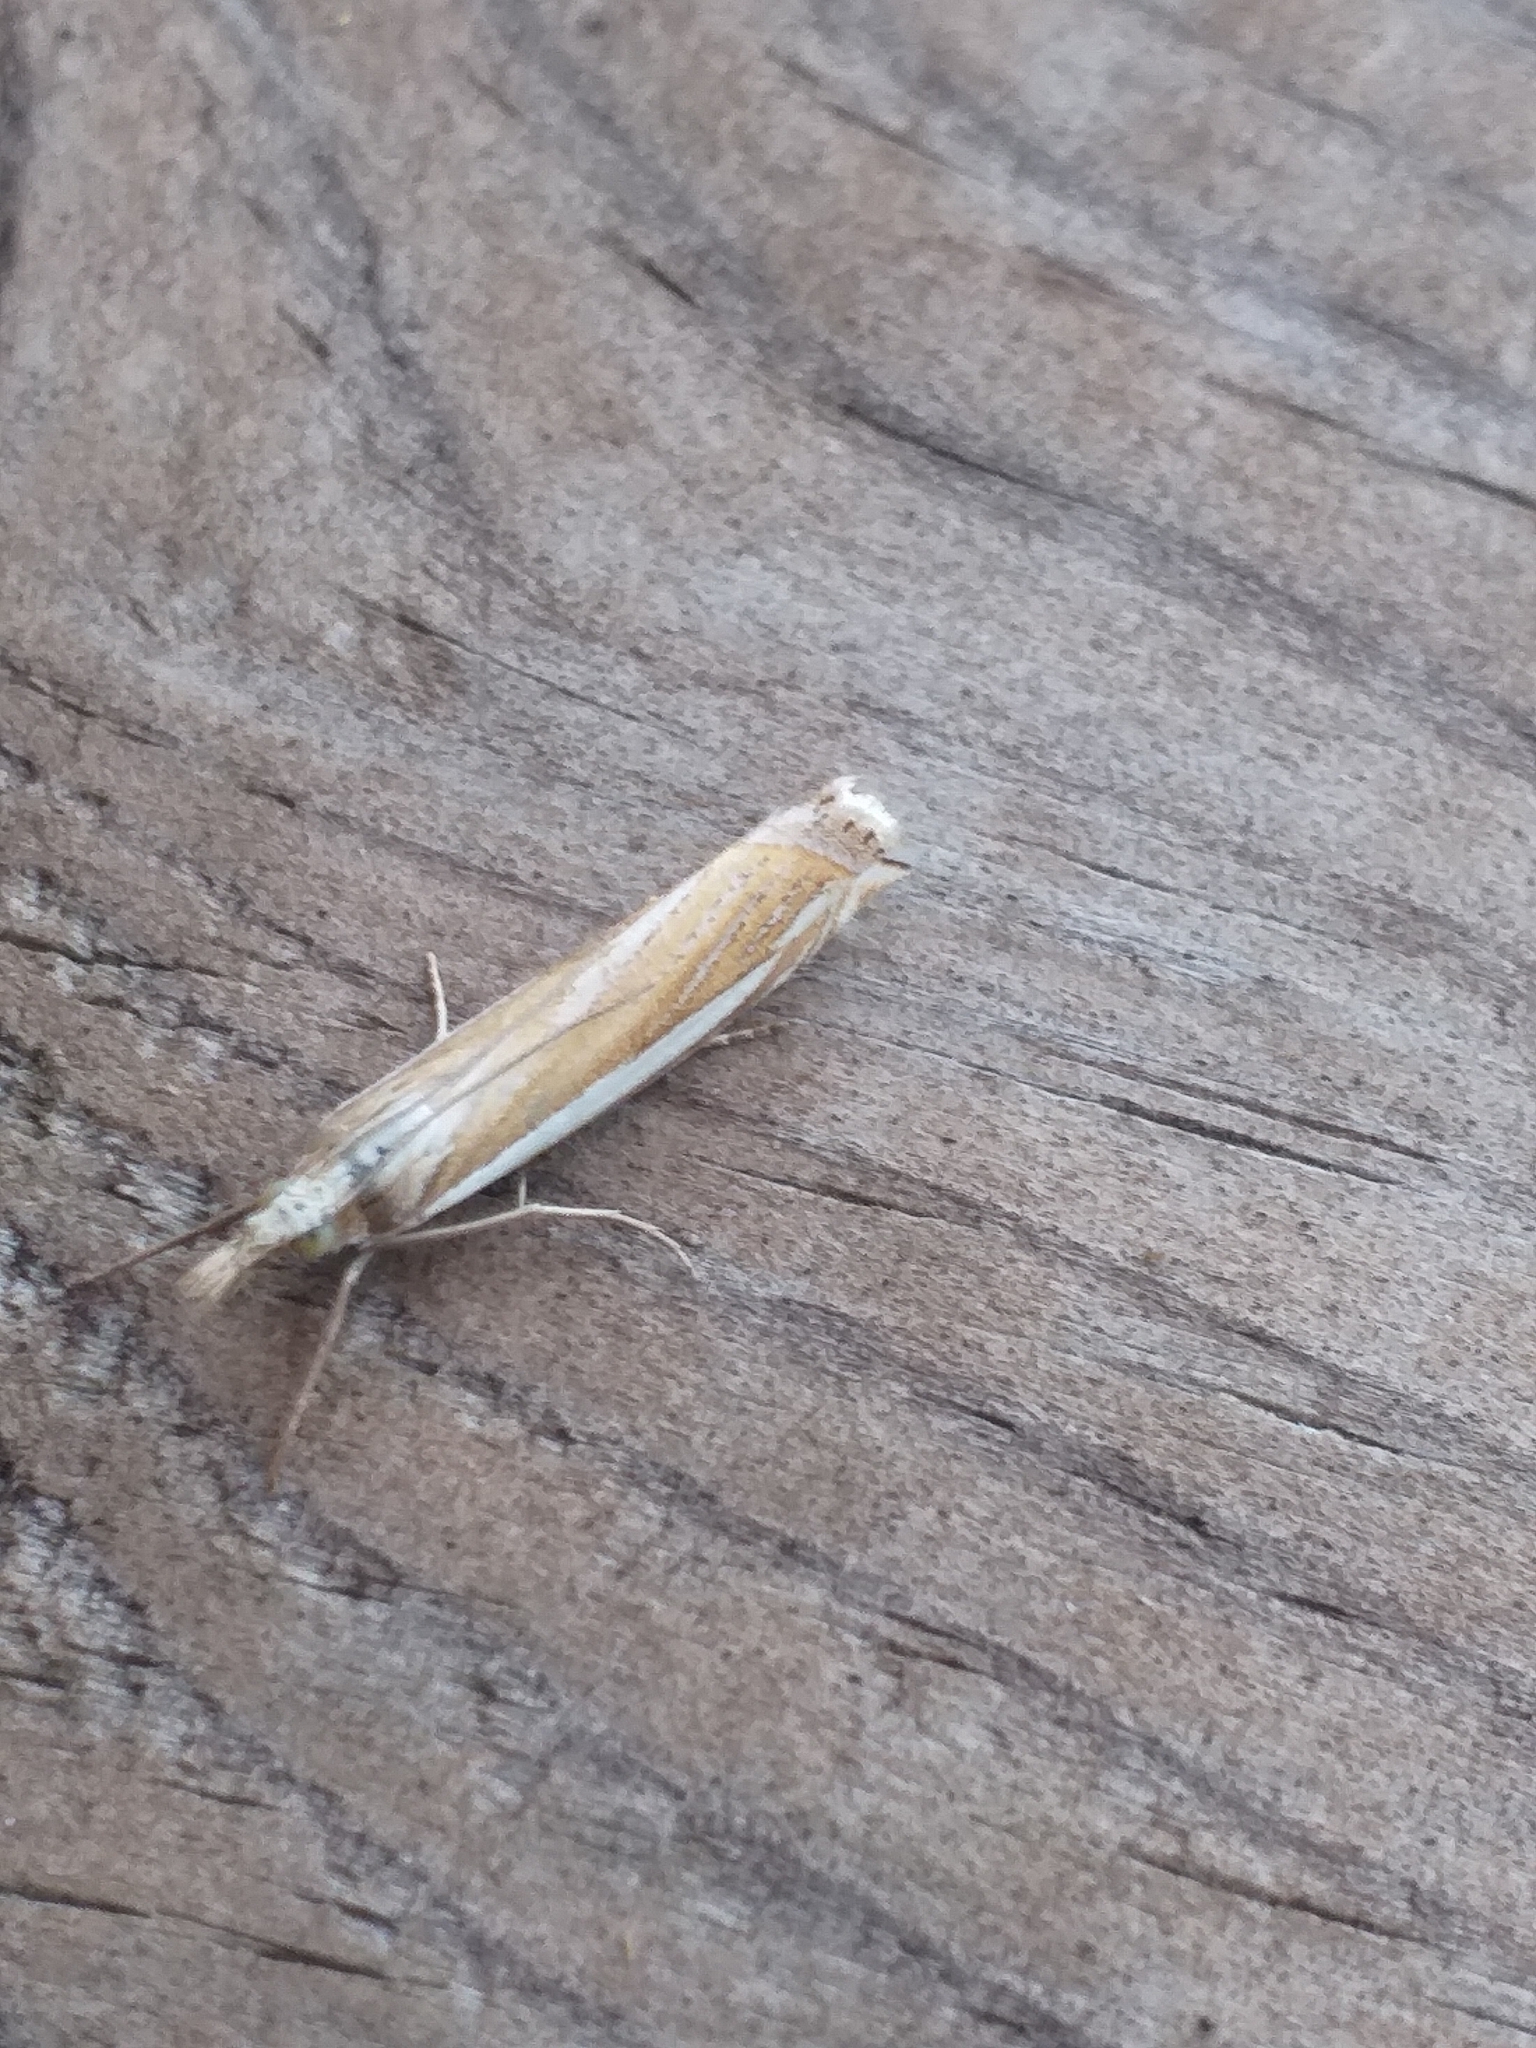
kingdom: Animalia
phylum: Arthropoda
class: Insecta
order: Lepidoptera
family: Crambidae
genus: Crambus
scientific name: Crambus pascuella
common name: Inlaid grass-veneer
